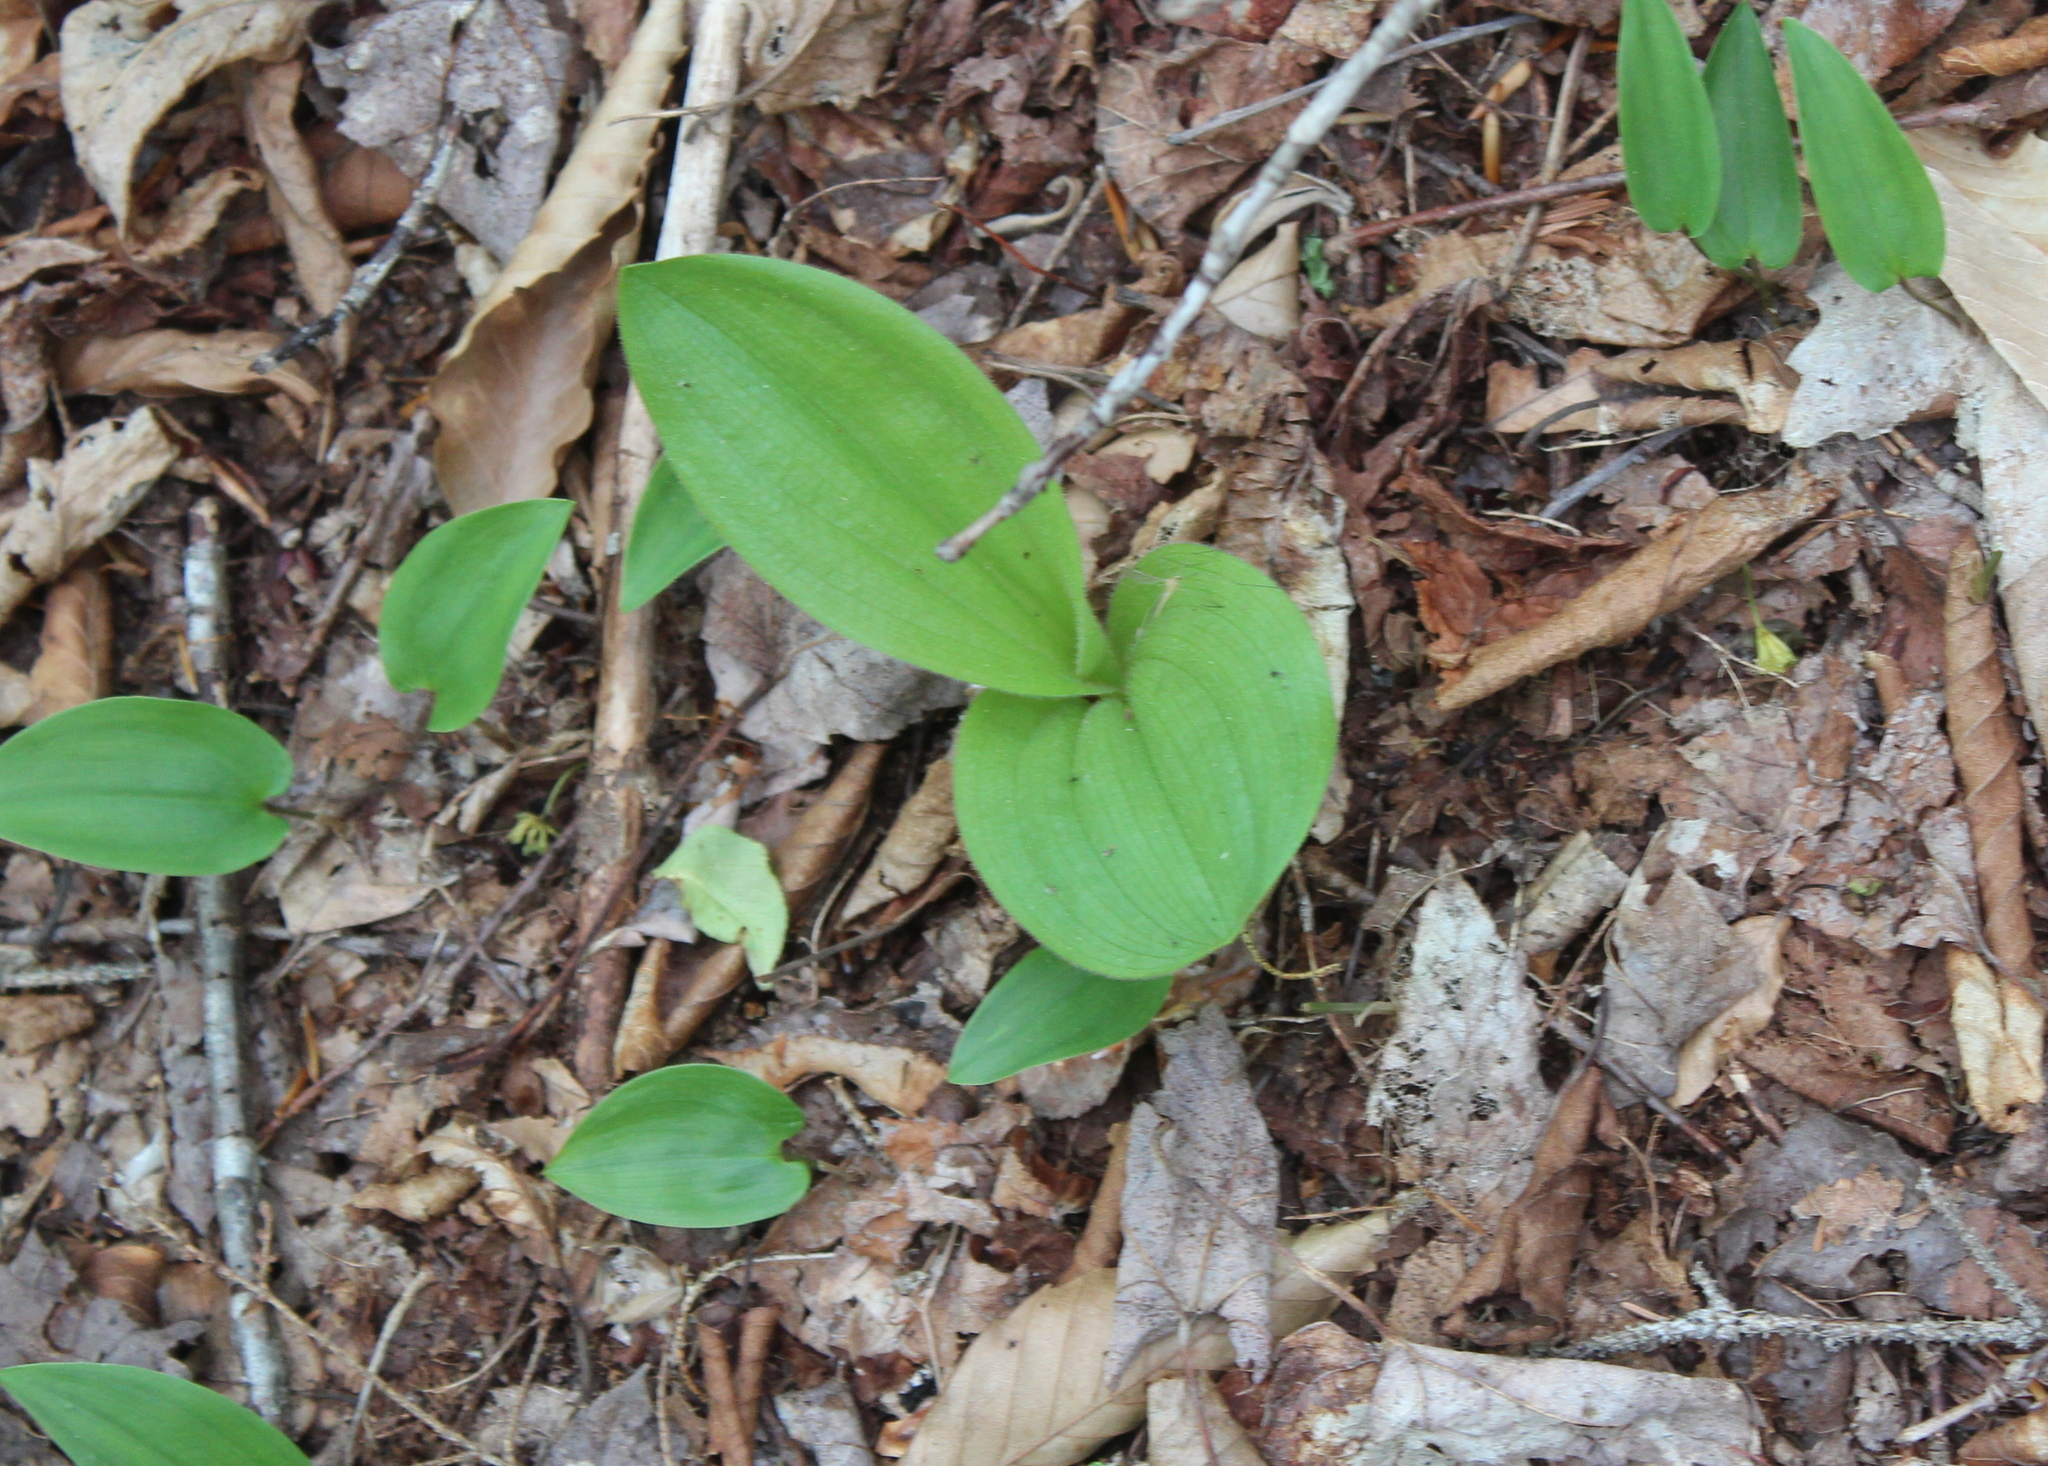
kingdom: Plantae
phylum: Tracheophyta
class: Liliopsida
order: Asparagales
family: Orchidaceae
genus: Cypripedium
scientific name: Cypripedium acaule
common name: Pink lady's-slipper
